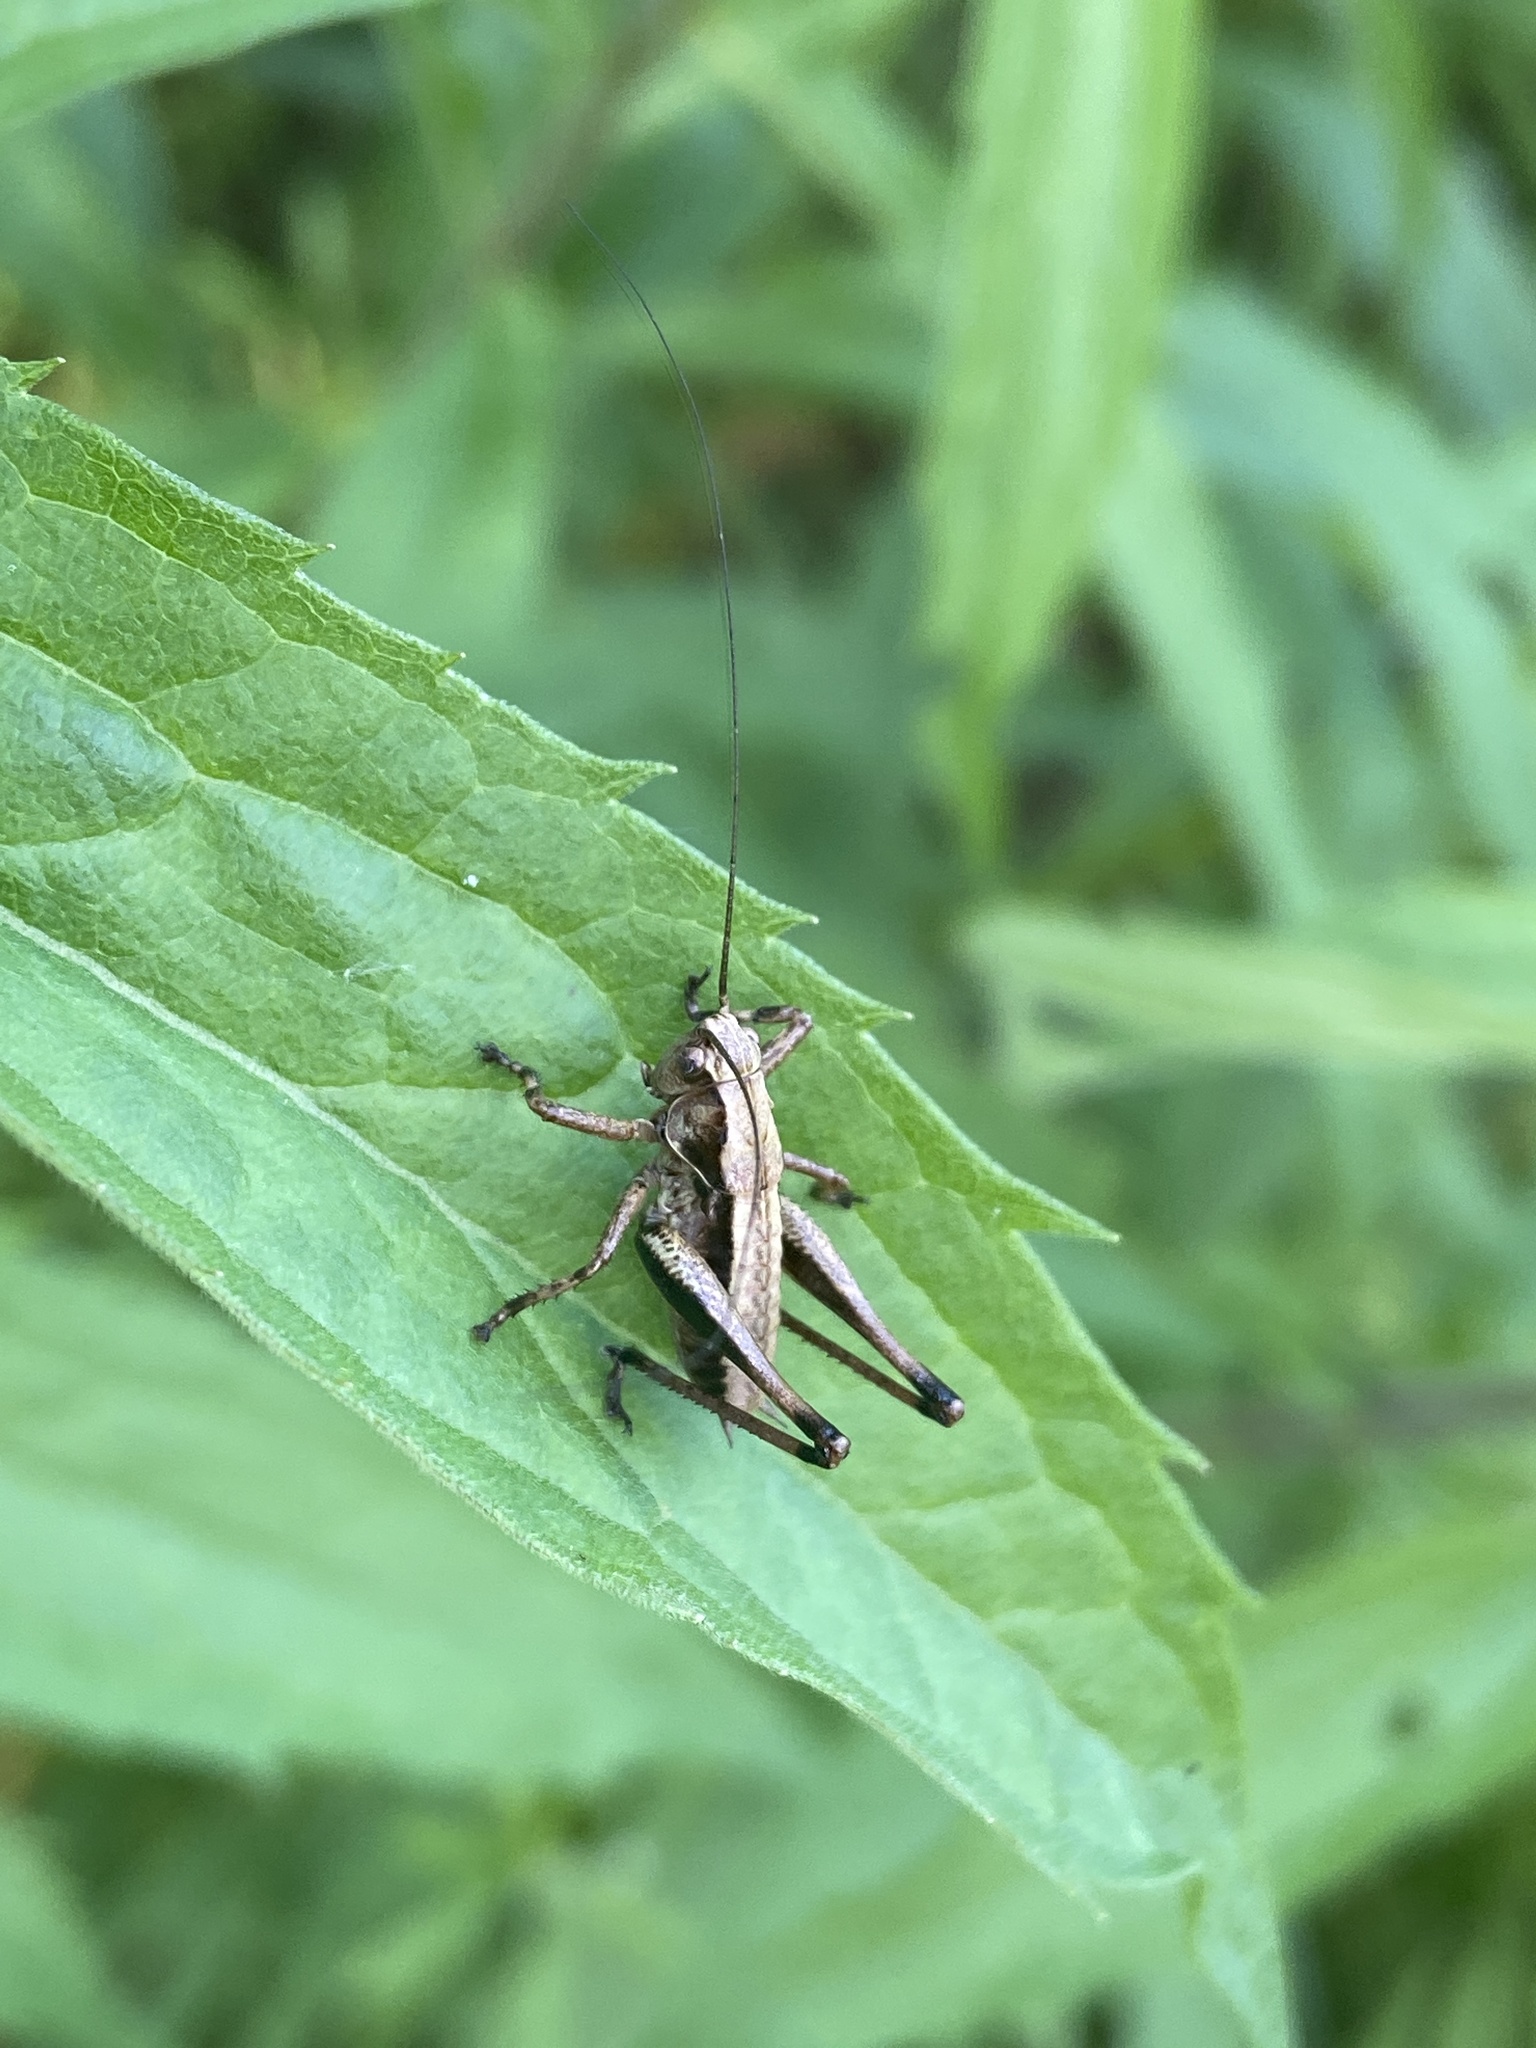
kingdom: Animalia
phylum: Arthropoda
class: Insecta
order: Orthoptera
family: Tettigoniidae
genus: Pholidoptera
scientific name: Pholidoptera griseoaptera
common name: Dark bush-cricket
